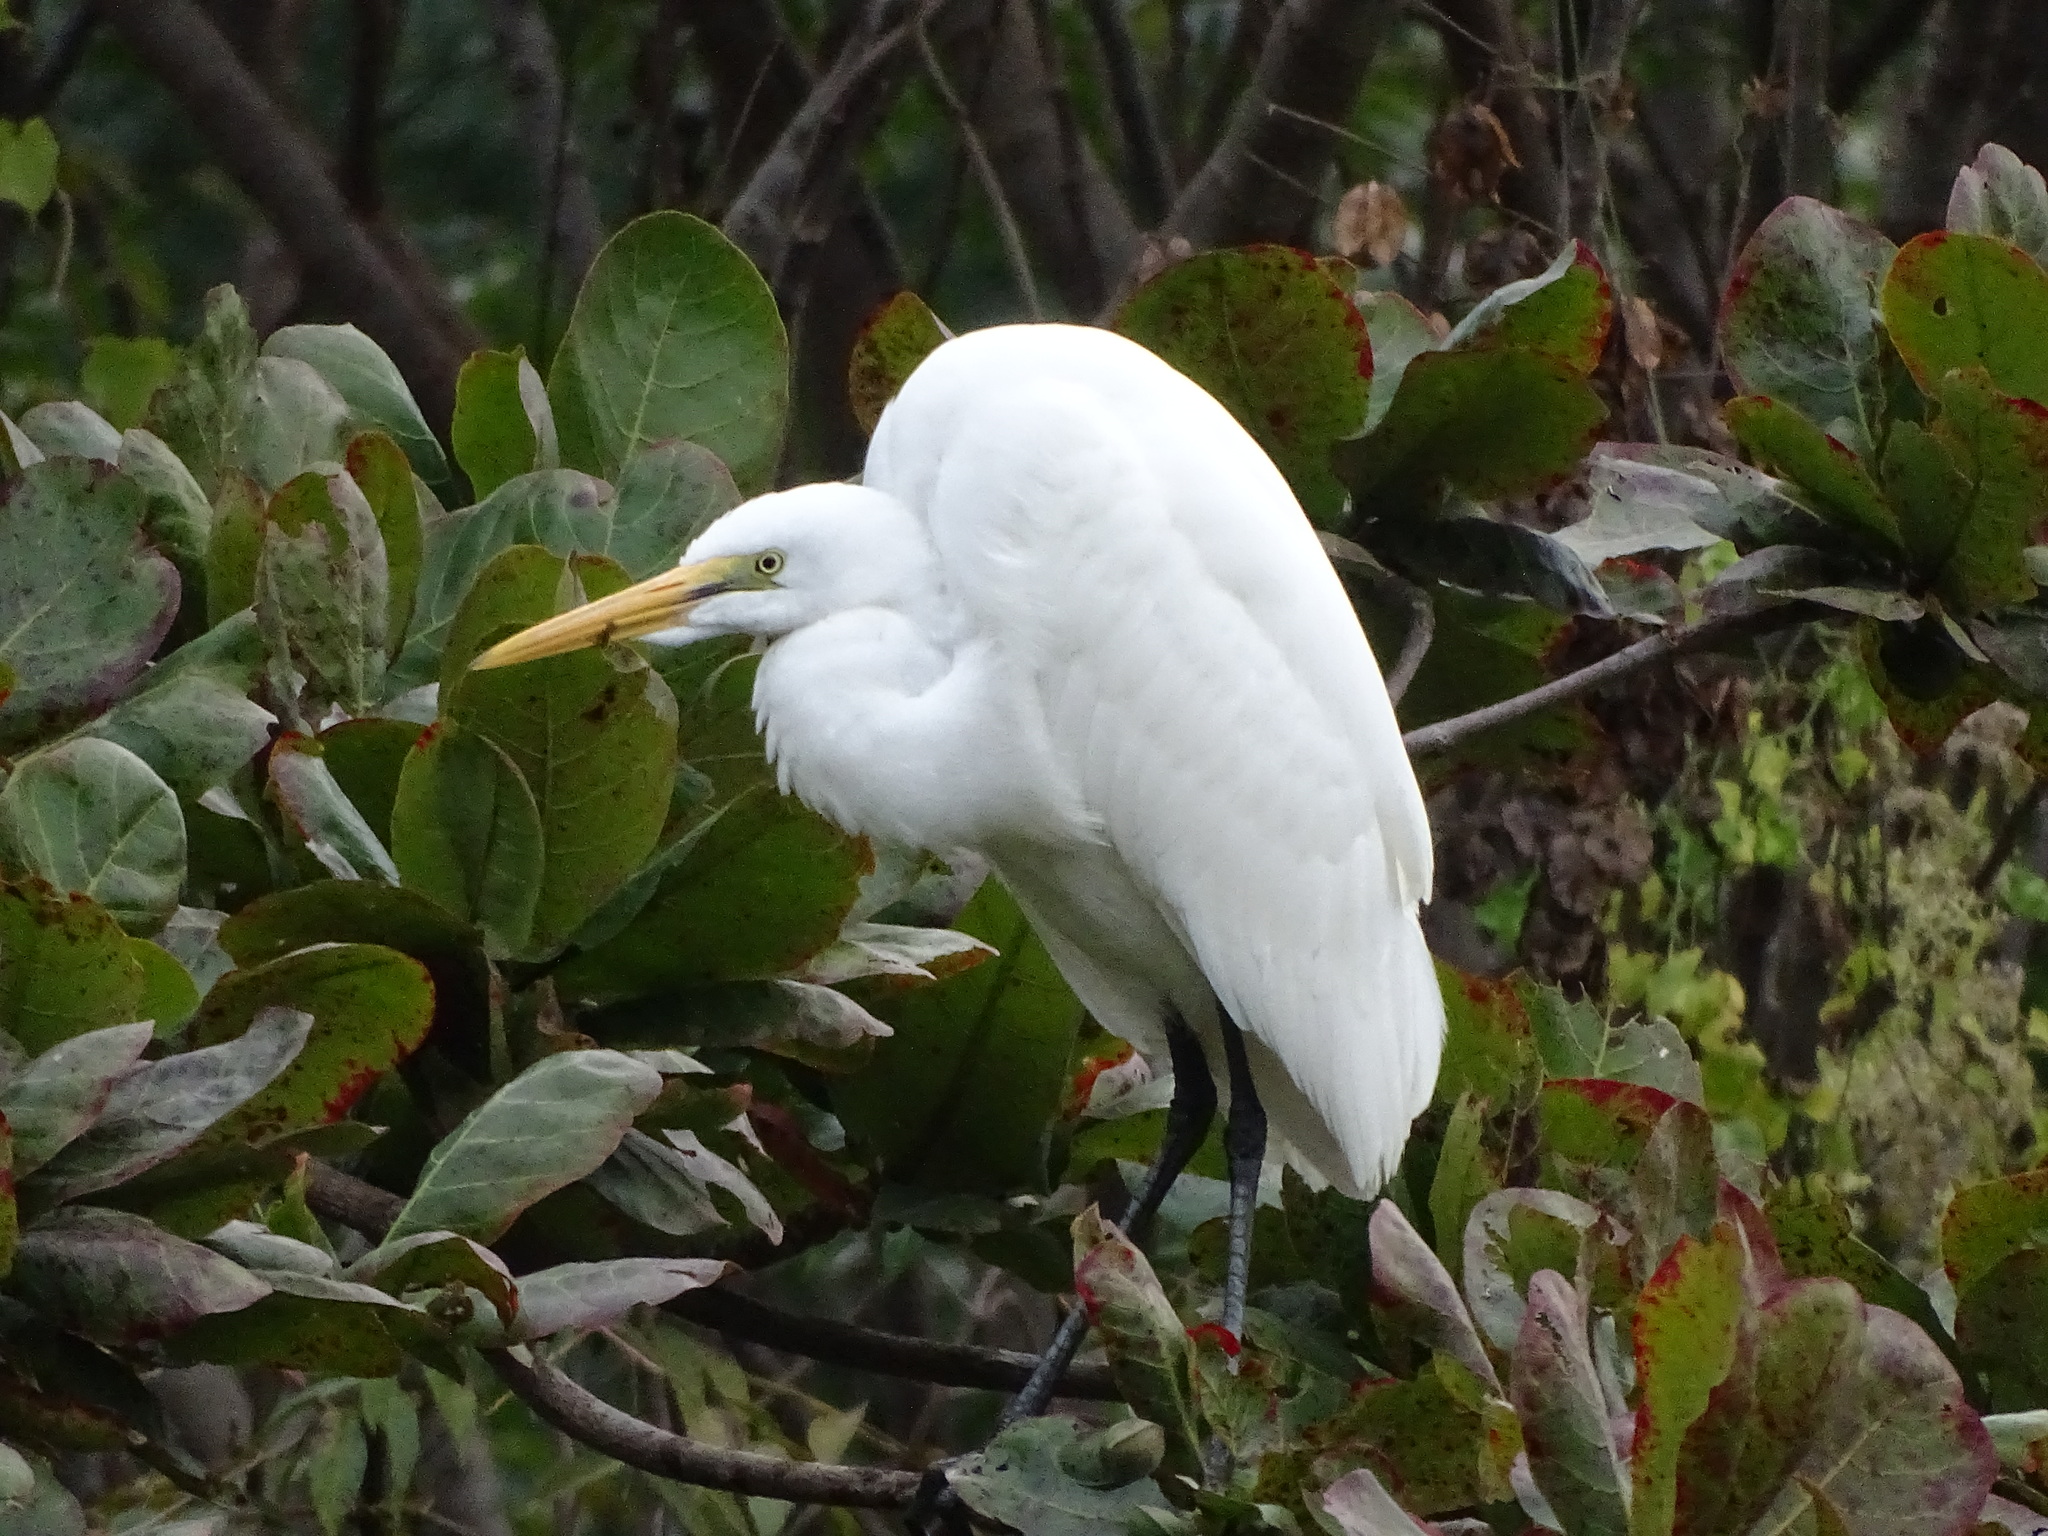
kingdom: Animalia
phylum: Chordata
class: Aves
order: Pelecaniformes
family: Ardeidae
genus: Ardea
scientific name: Ardea alba
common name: Great egret
